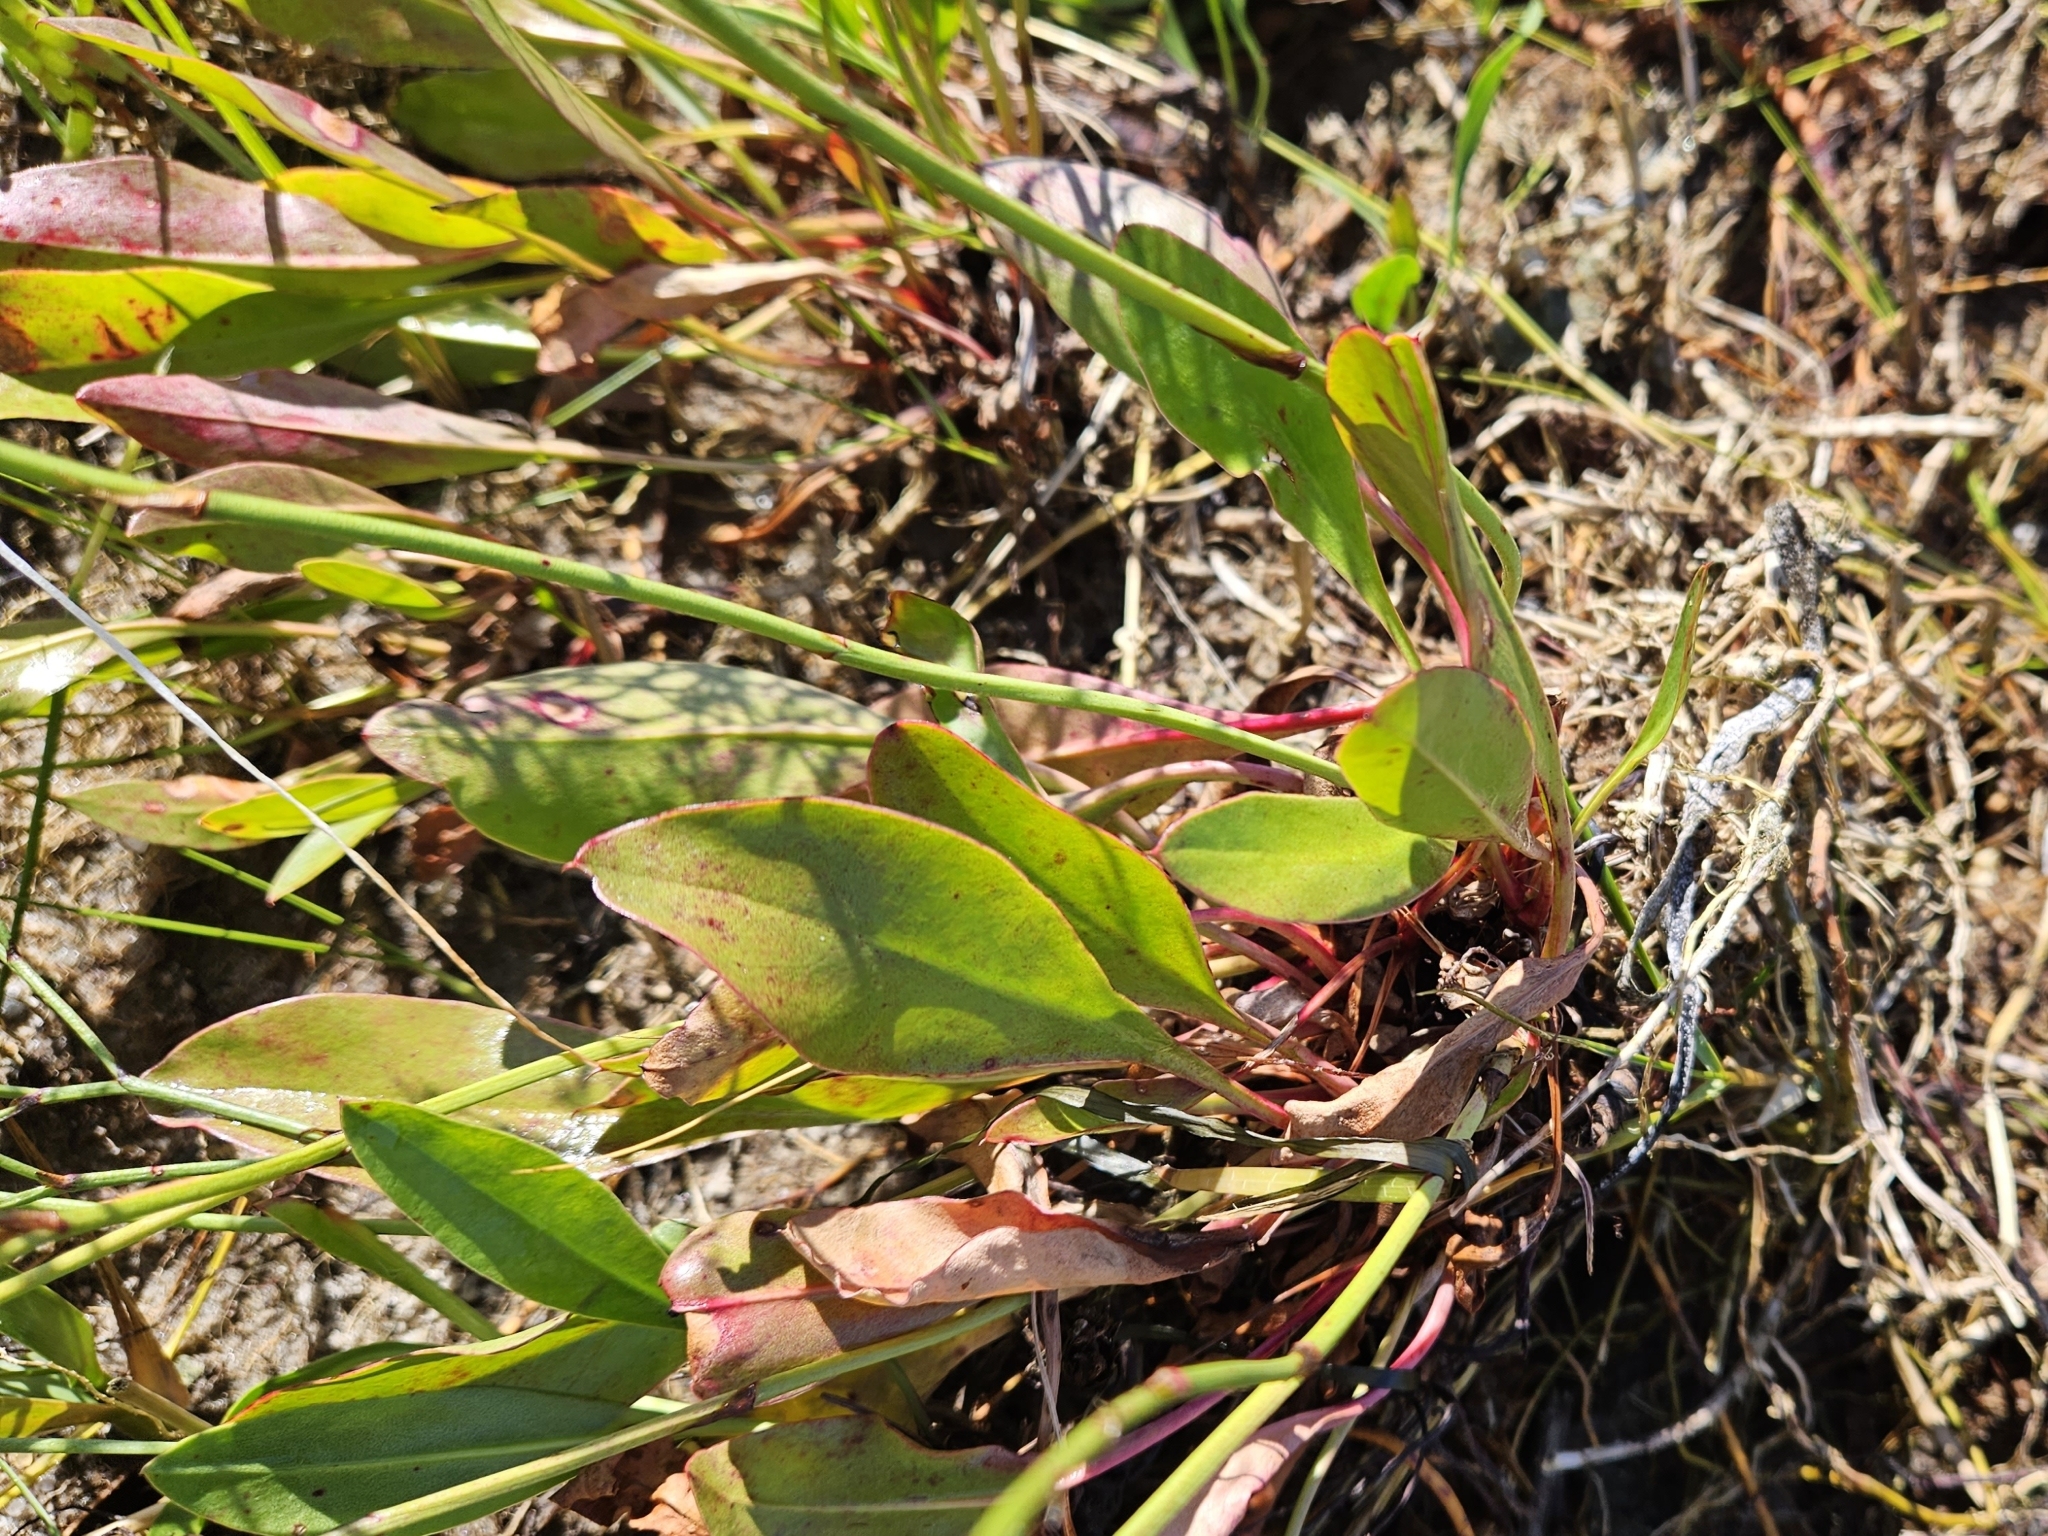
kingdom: Plantae
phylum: Tracheophyta
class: Magnoliopsida
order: Caryophyllales
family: Plumbaginaceae
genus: Limonium
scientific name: Limonium carolinianum
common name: Carolina sea lavender
